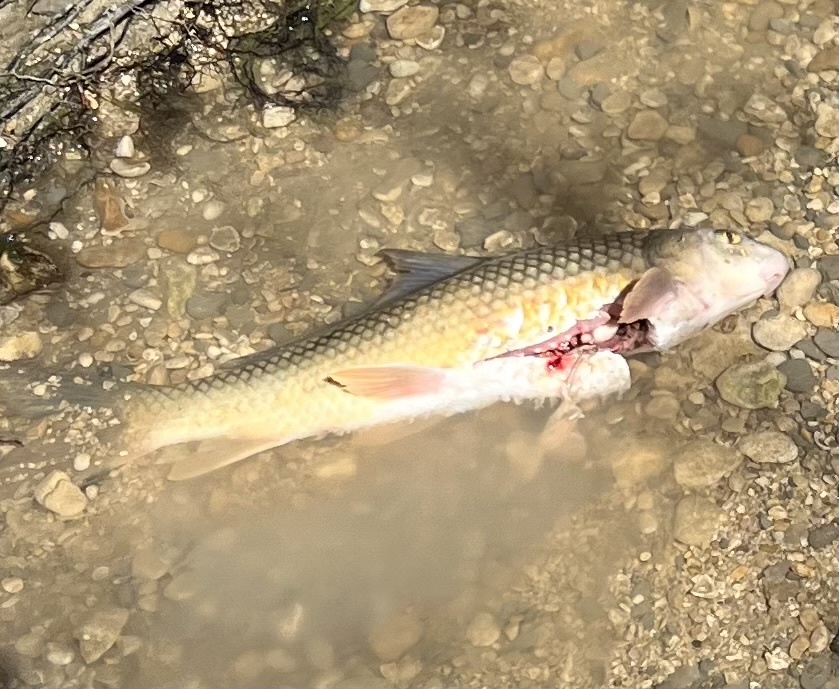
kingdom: Animalia
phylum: Chordata
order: Cypriniformes
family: Catostomidae
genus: Carpiodes
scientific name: Carpiodes carpio
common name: River carpsucker
